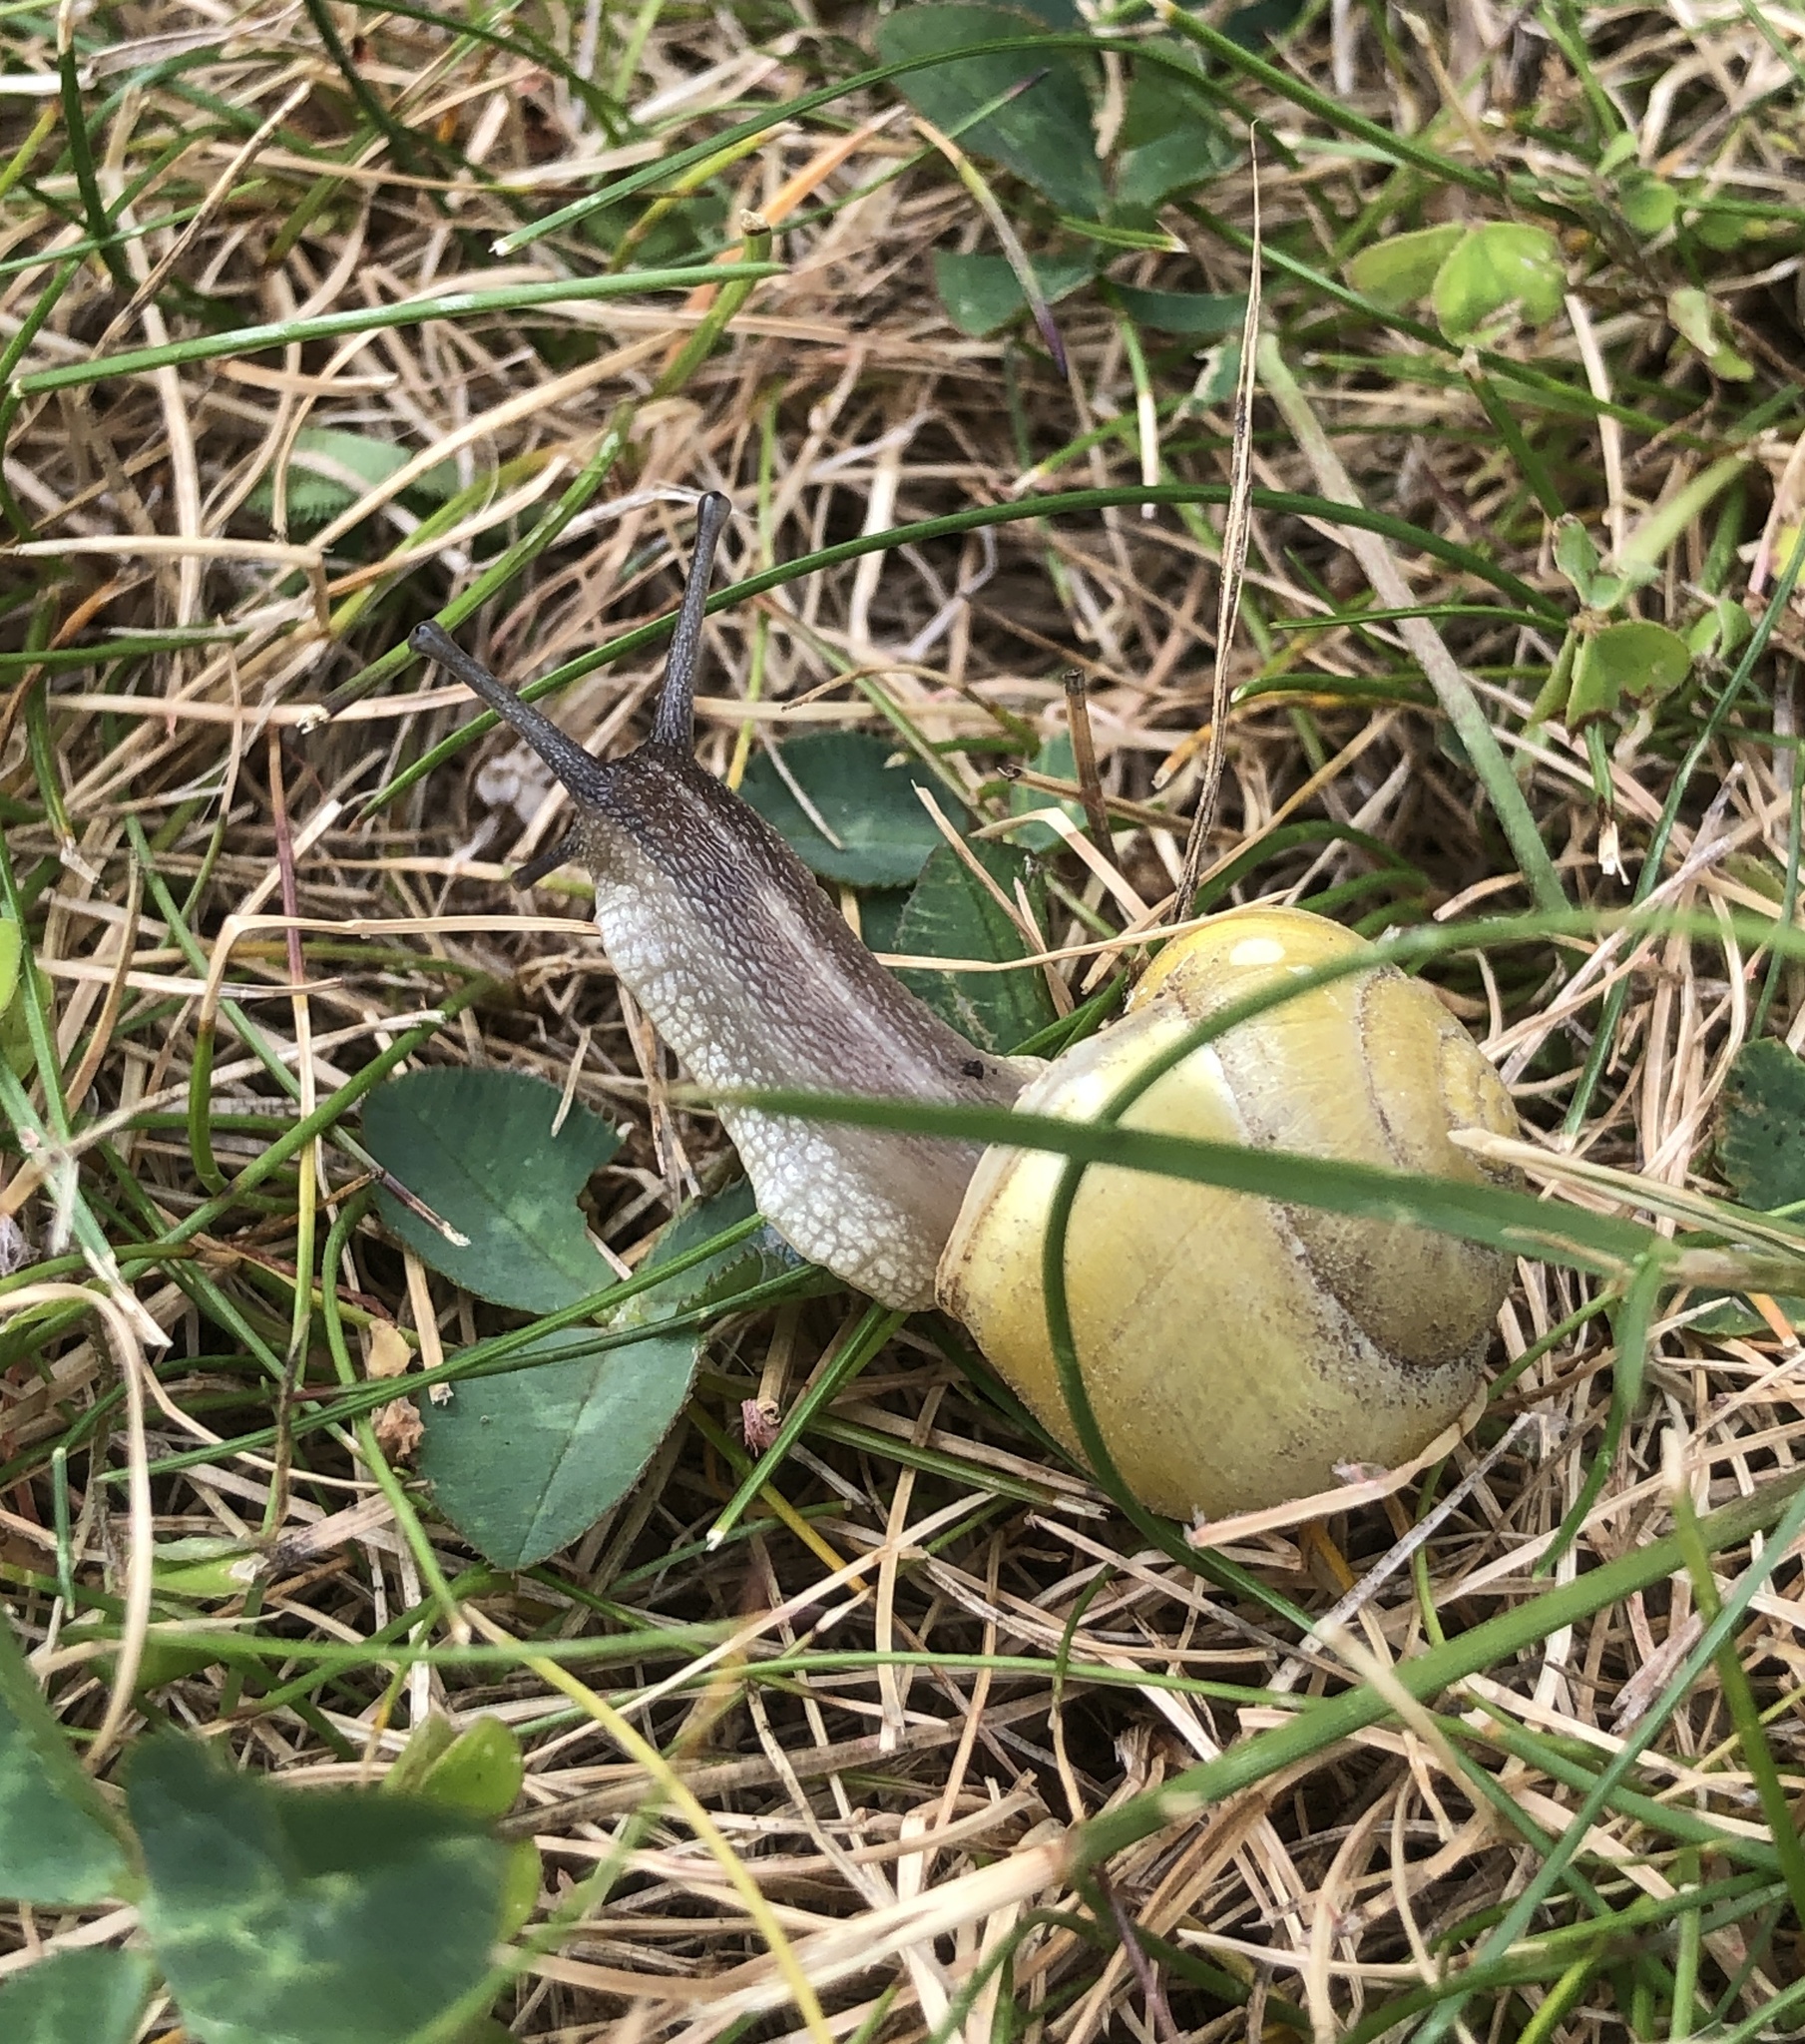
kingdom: Animalia
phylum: Mollusca
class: Gastropoda
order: Stylommatophora
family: Helicidae
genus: Cepaea
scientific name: Cepaea hortensis
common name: White-lip gardensnail
